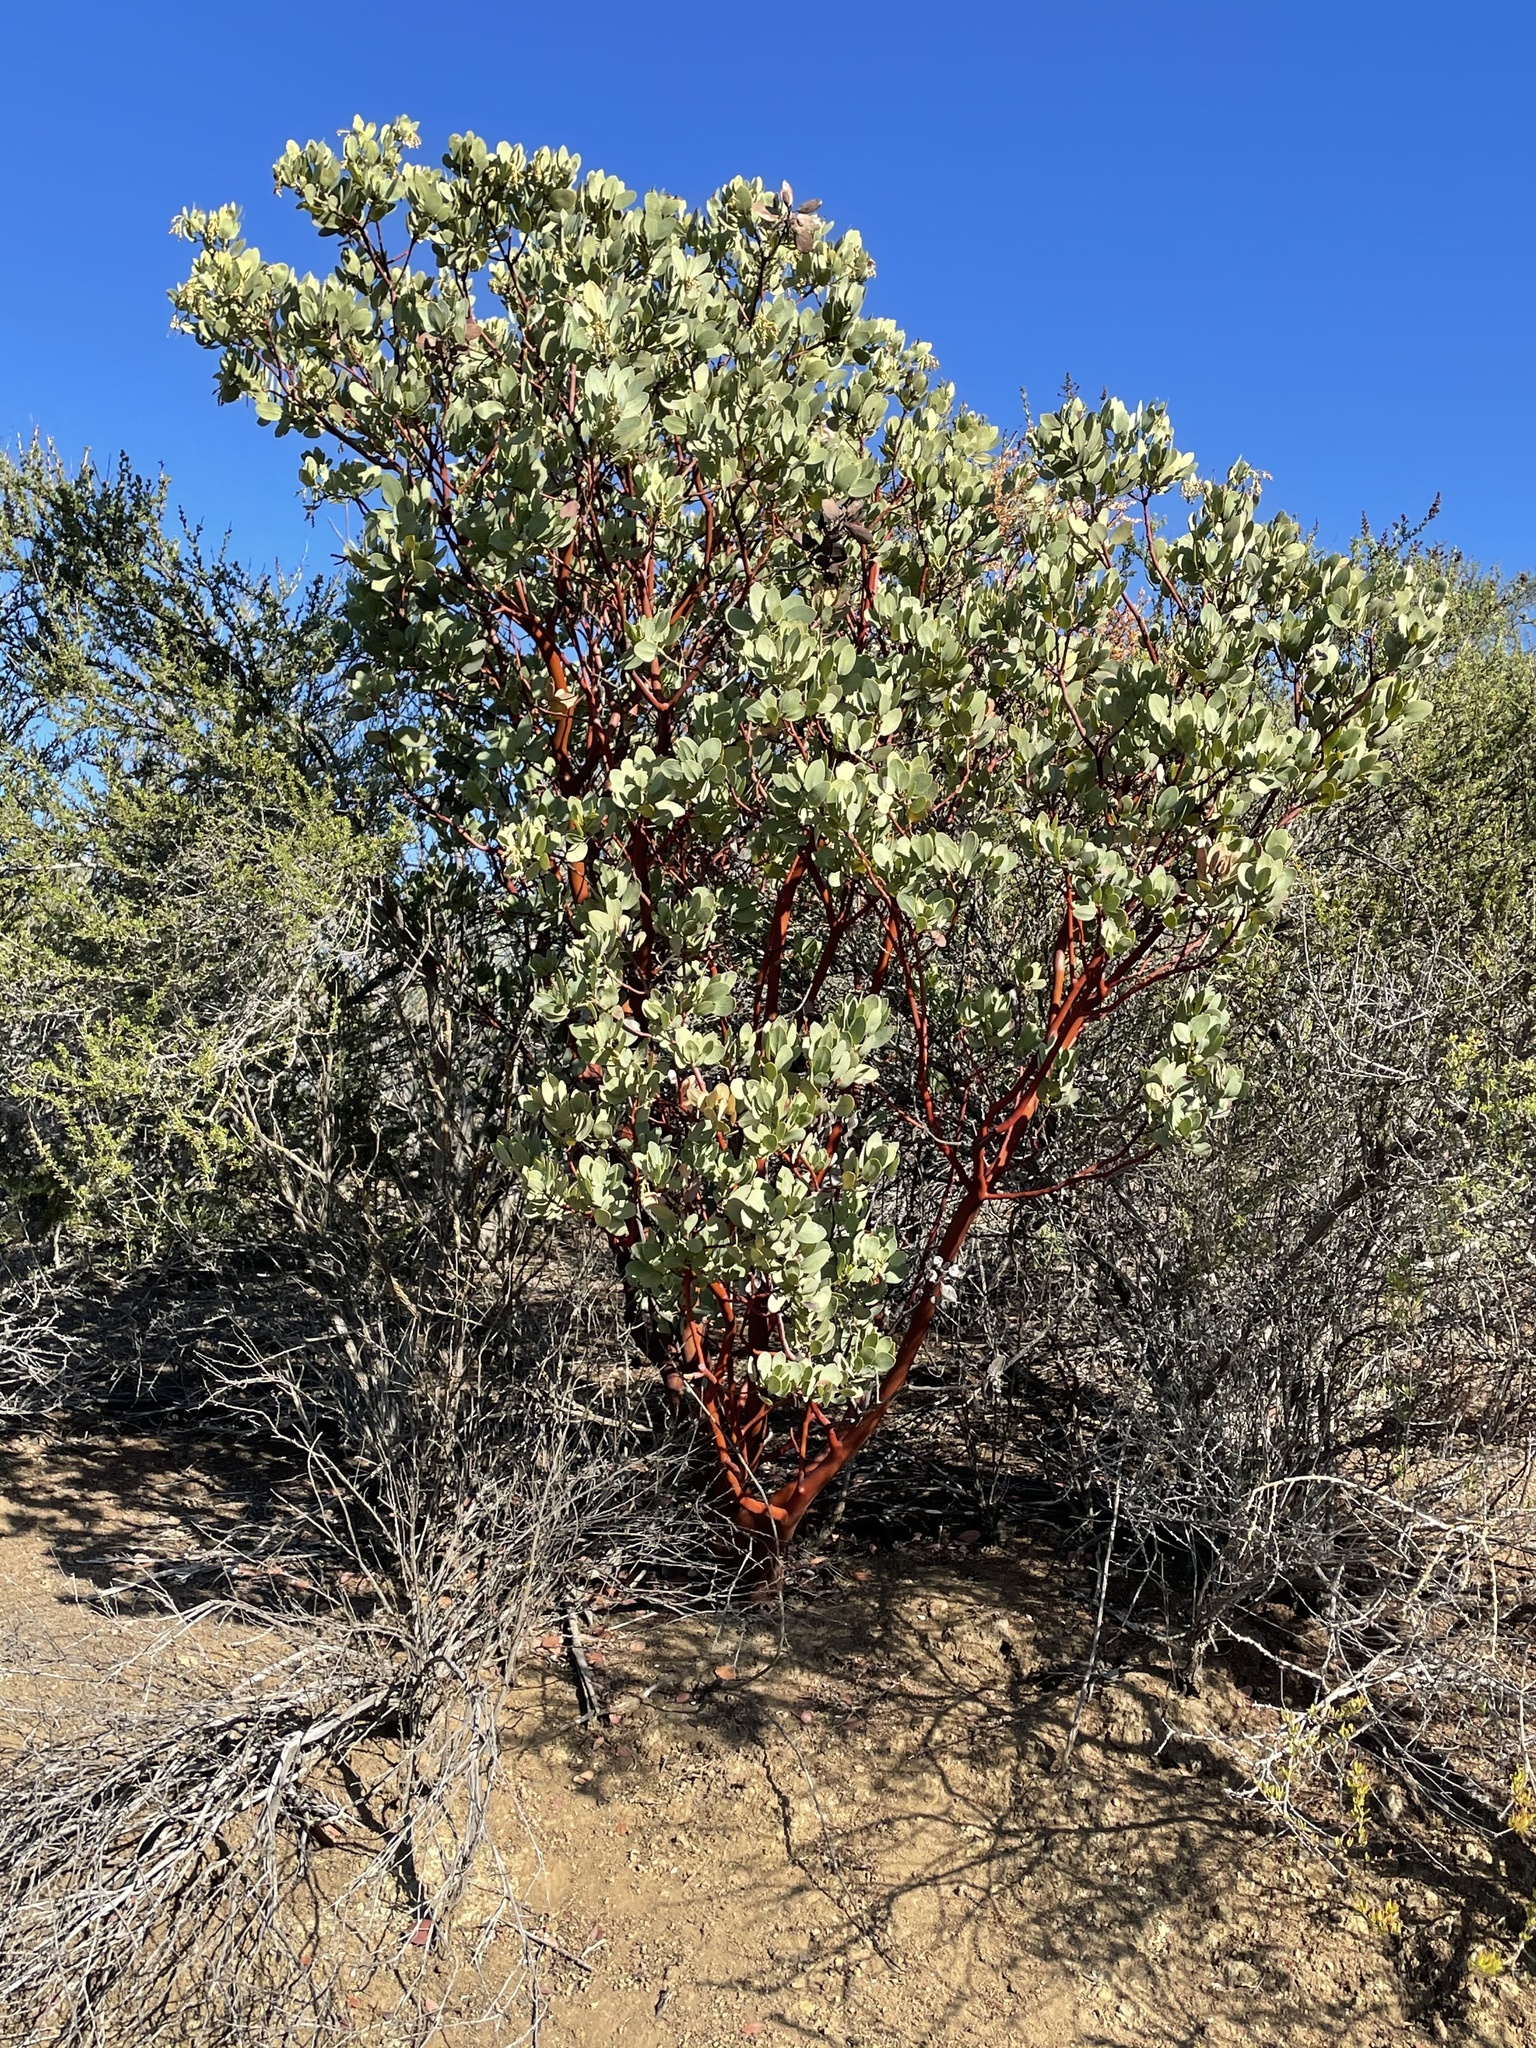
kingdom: Plantae
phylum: Tracheophyta
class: Magnoliopsida
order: Ericales
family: Ericaceae
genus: Arctostaphylos
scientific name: Arctostaphylos glauca
